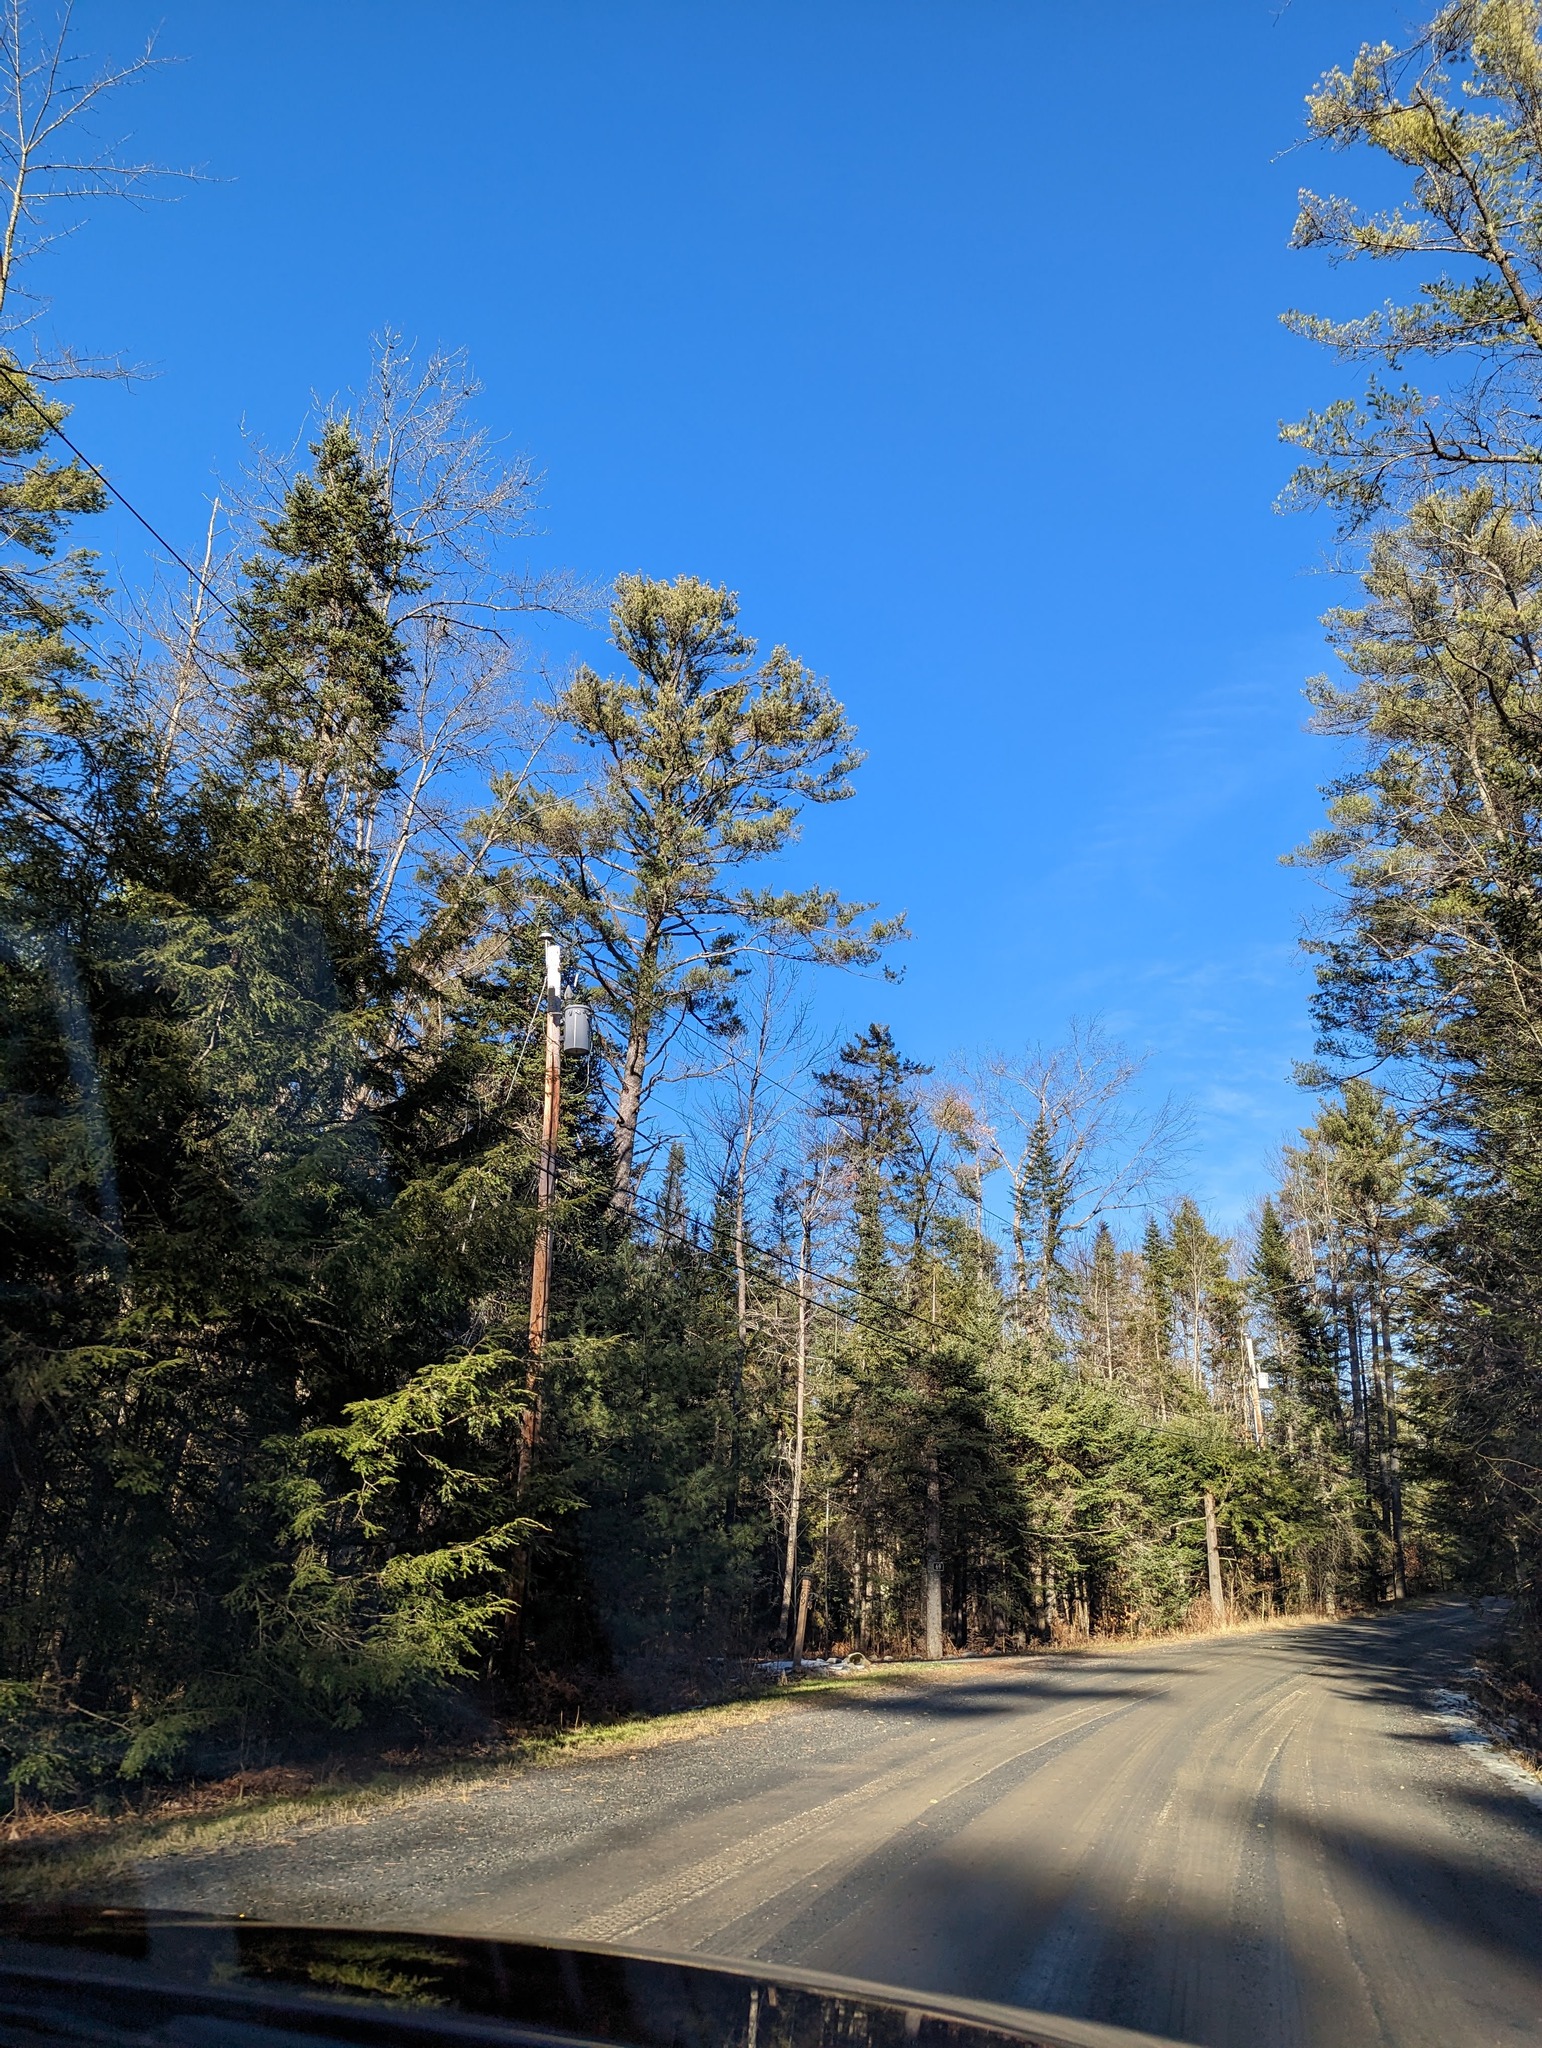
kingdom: Plantae
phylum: Tracheophyta
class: Pinopsida
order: Pinales
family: Pinaceae
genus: Pinus
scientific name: Pinus strobus
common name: Weymouth pine
